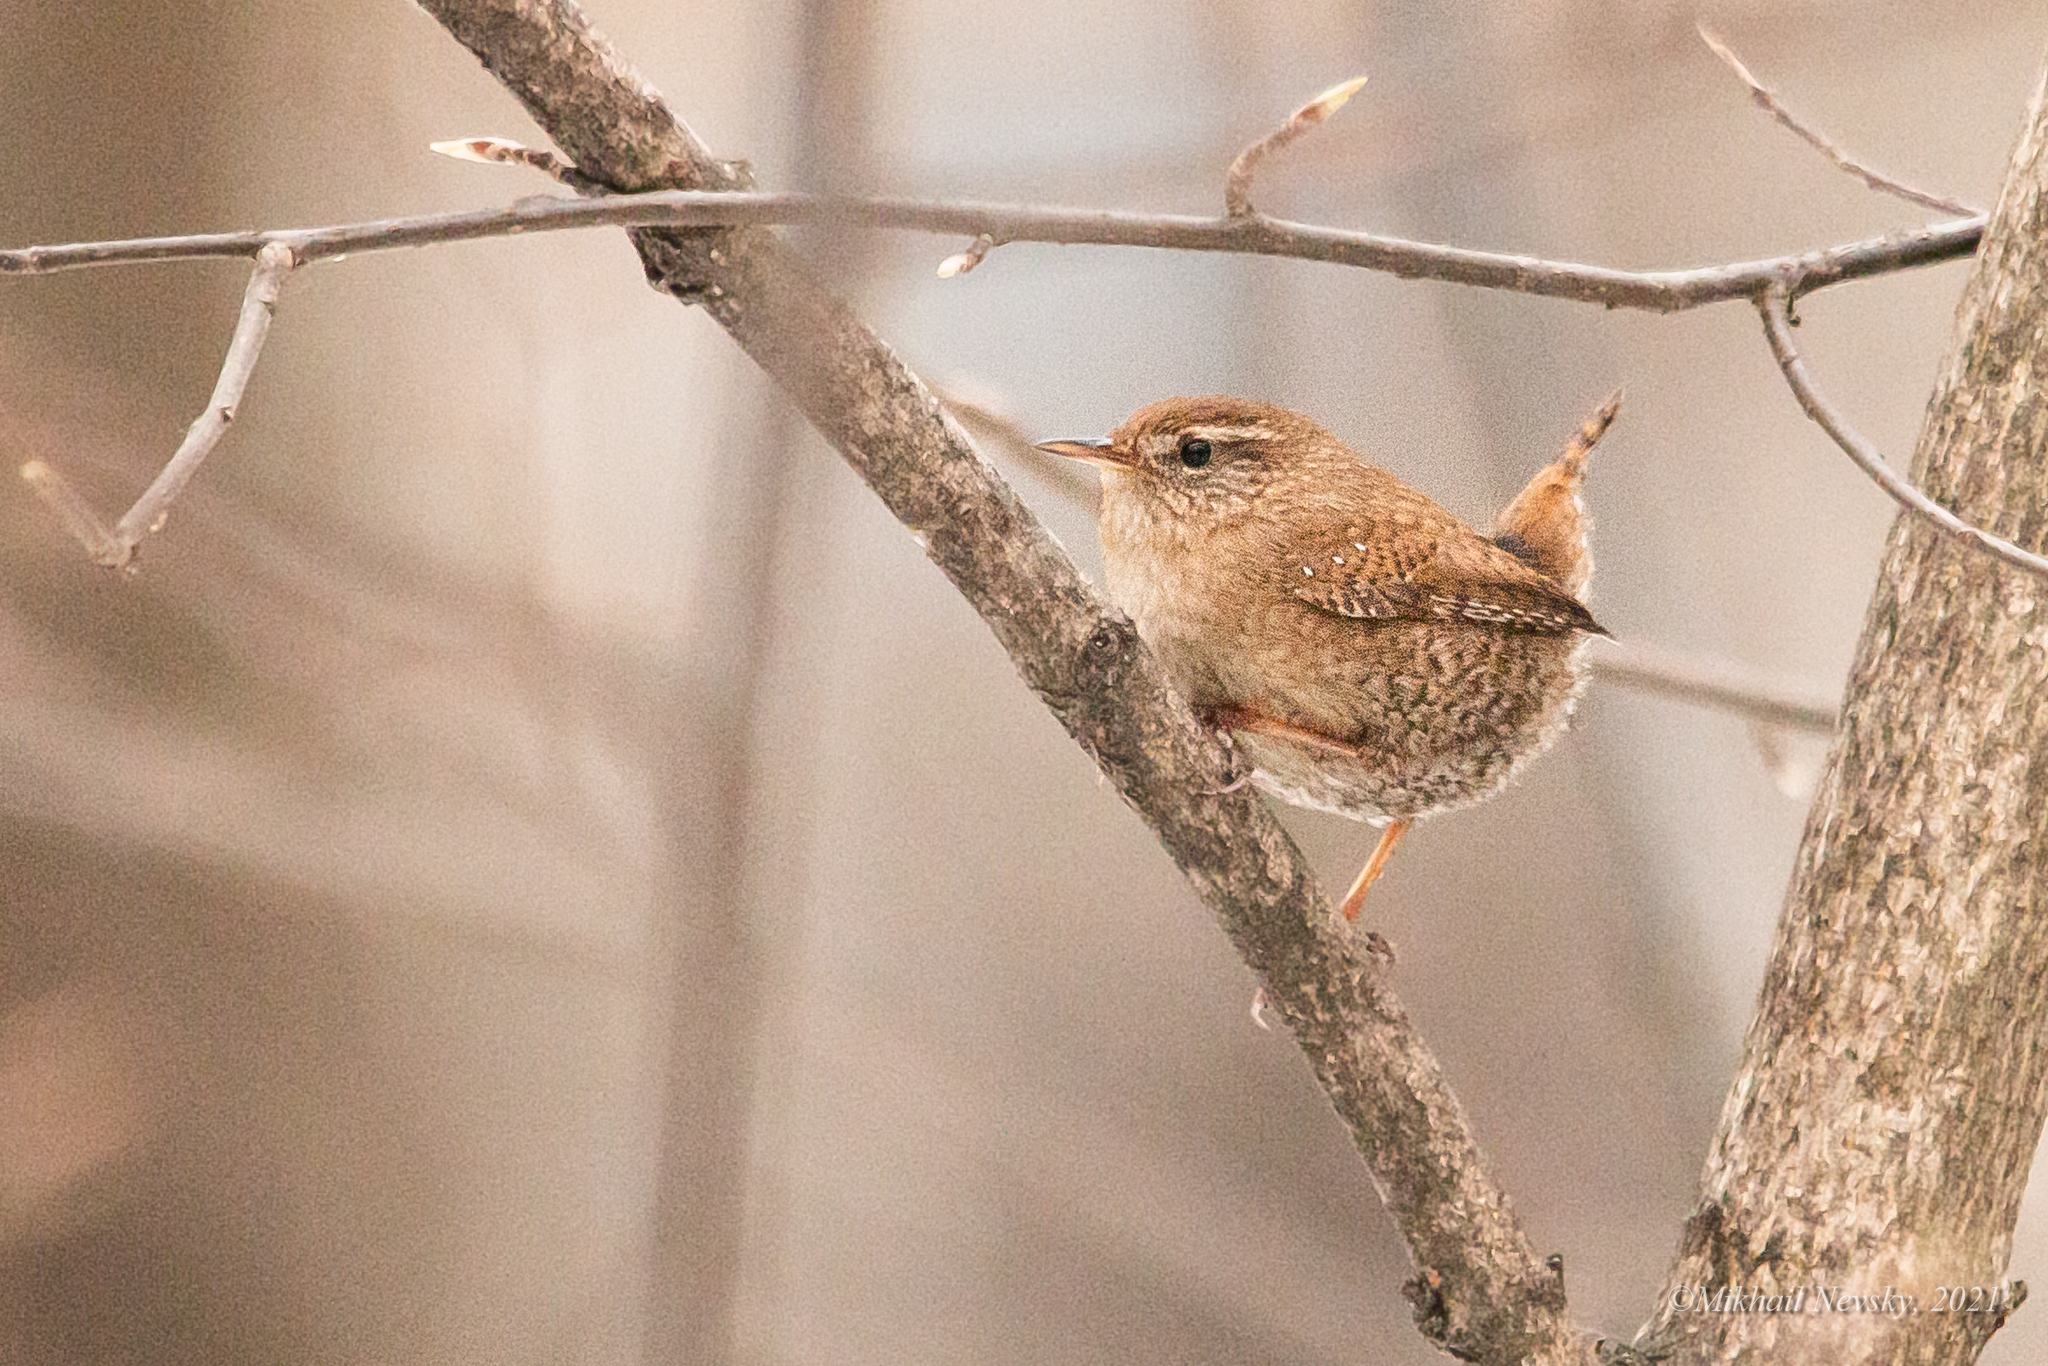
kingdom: Animalia
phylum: Chordata
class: Aves
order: Passeriformes
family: Troglodytidae
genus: Troglodytes
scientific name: Troglodytes troglodytes
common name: Eurasian wren
